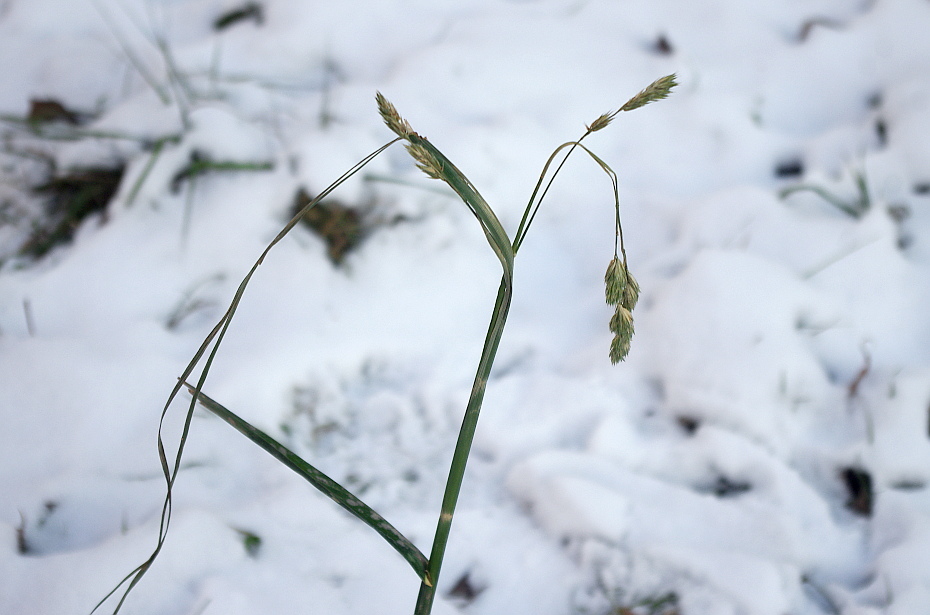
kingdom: Plantae
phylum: Tracheophyta
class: Liliopsida
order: Poales
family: Poaceae
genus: Dactylis
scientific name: Dactylis glomerata
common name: Orchardgrass
